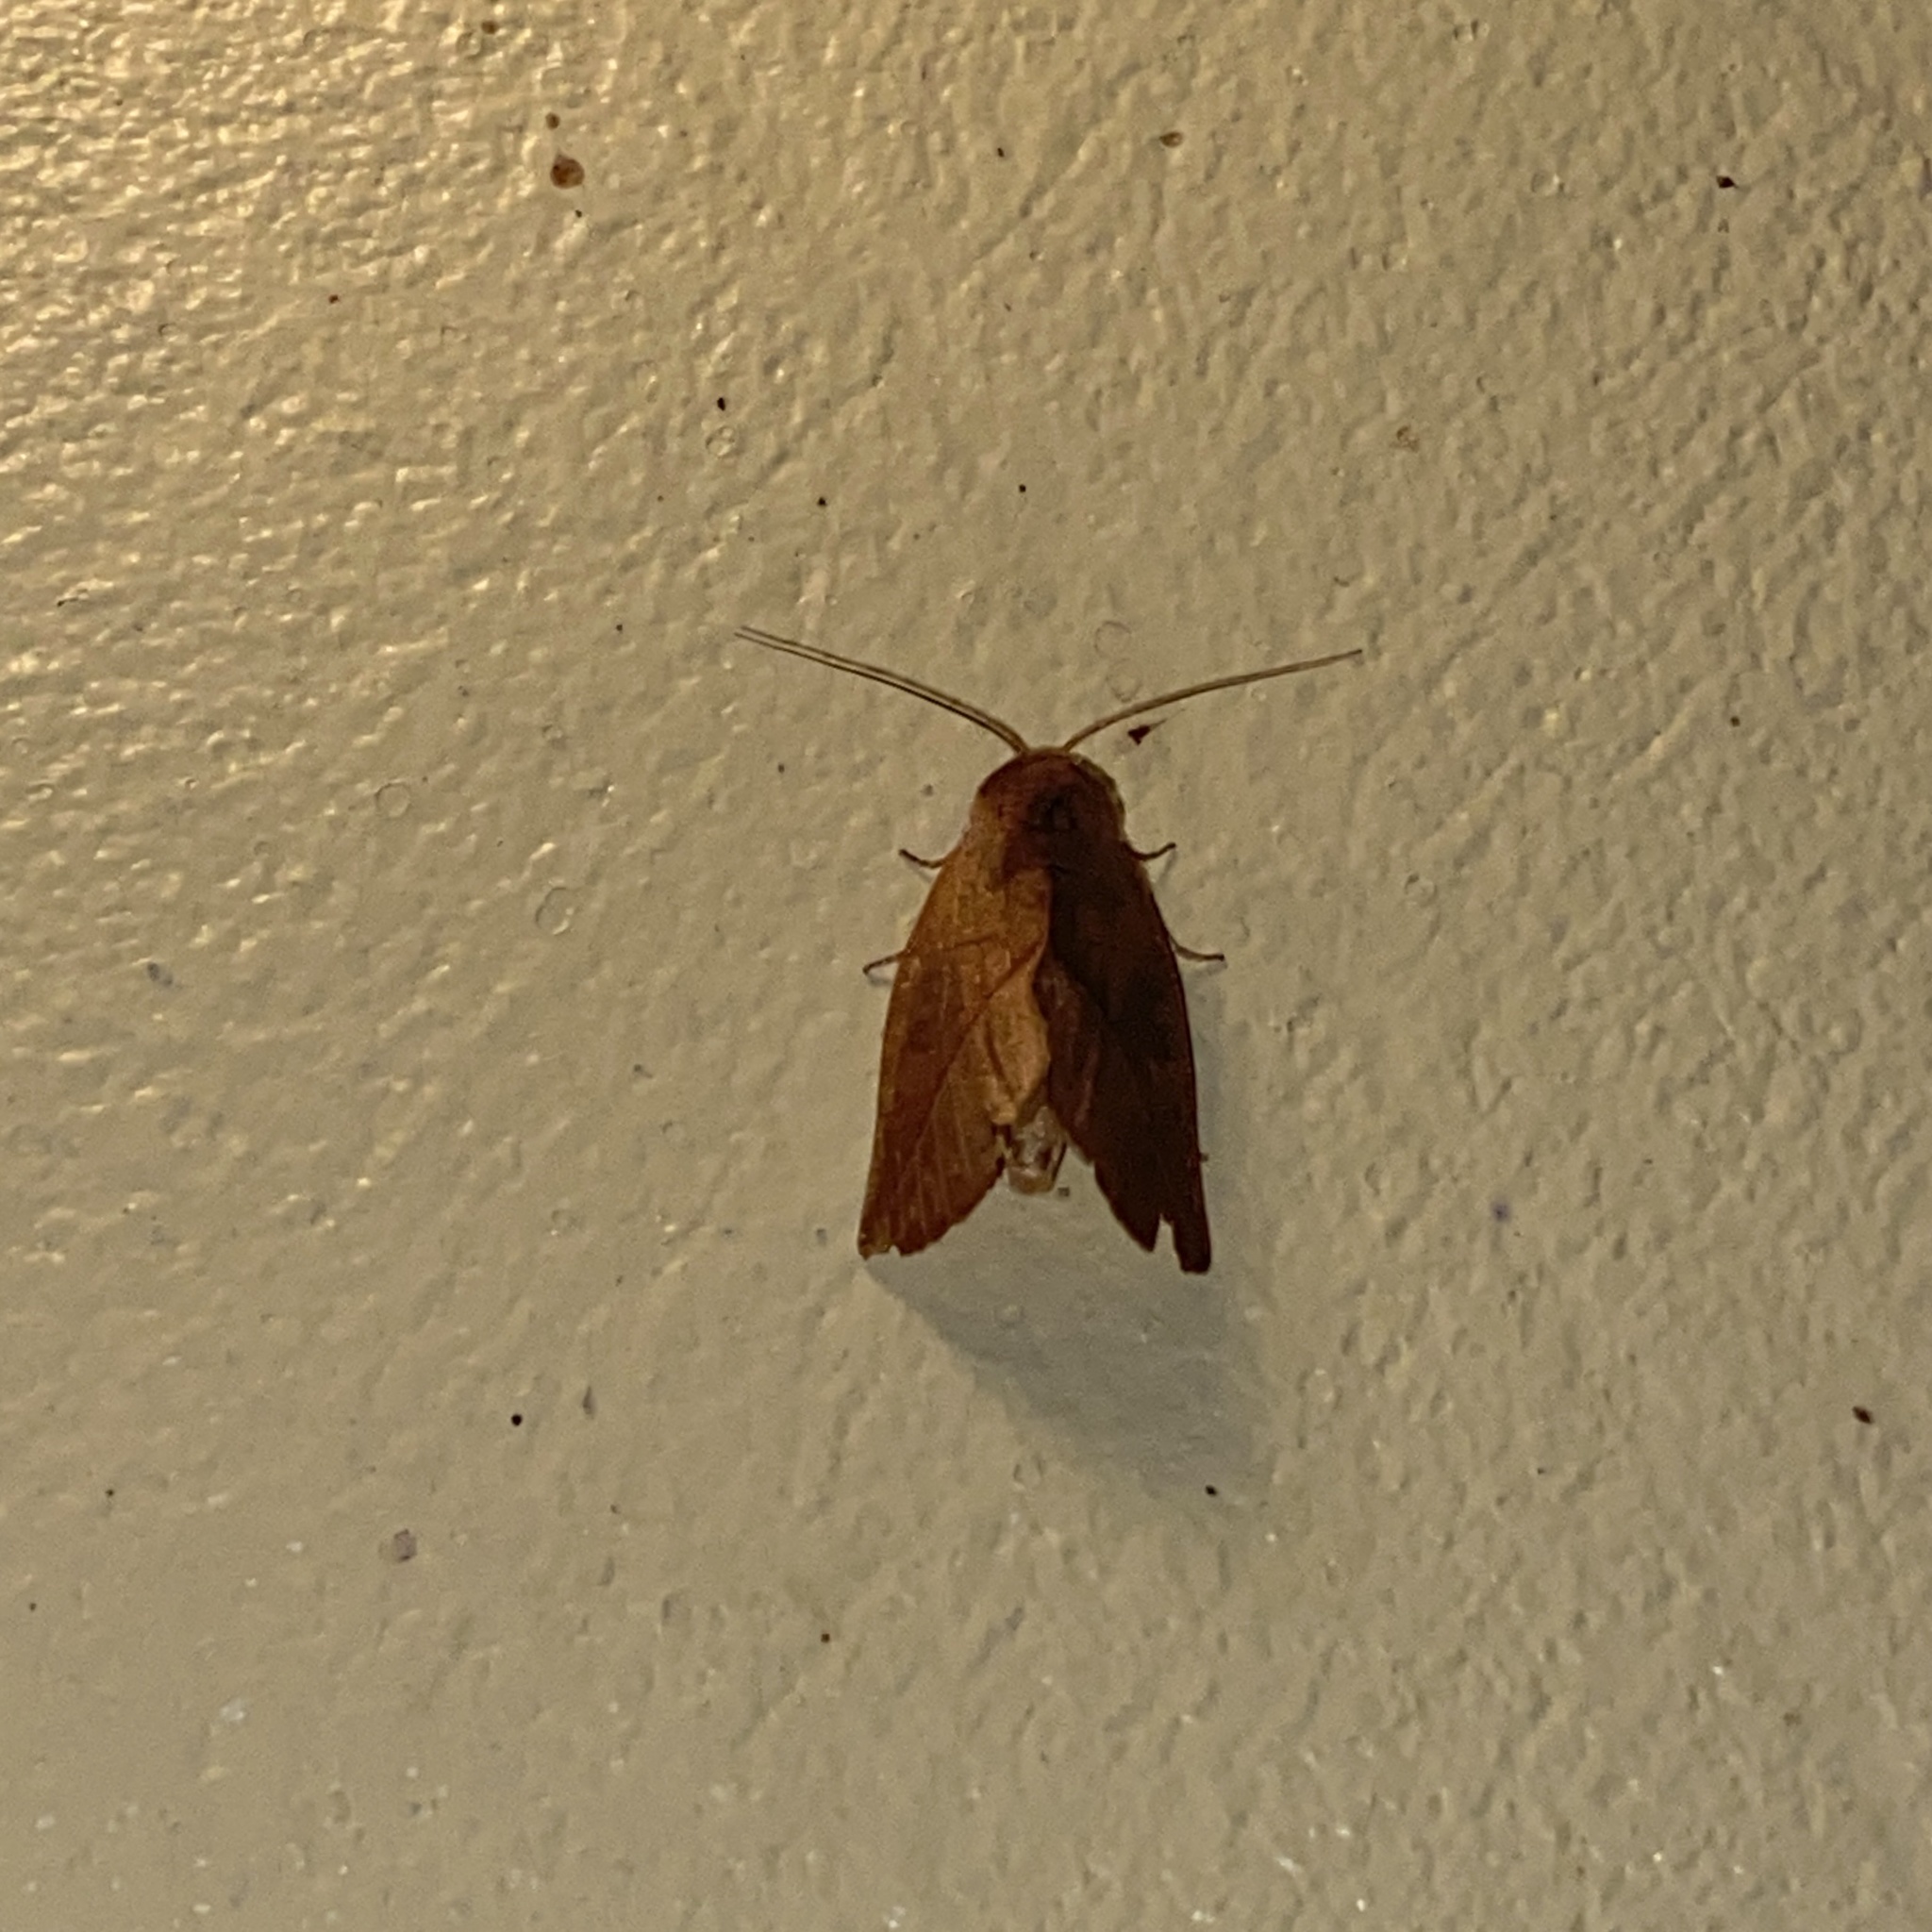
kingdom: Animalia
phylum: Arthropoda
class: Insecta
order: Lepidoptera
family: Notodontidae
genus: Apela
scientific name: Apela divisa
